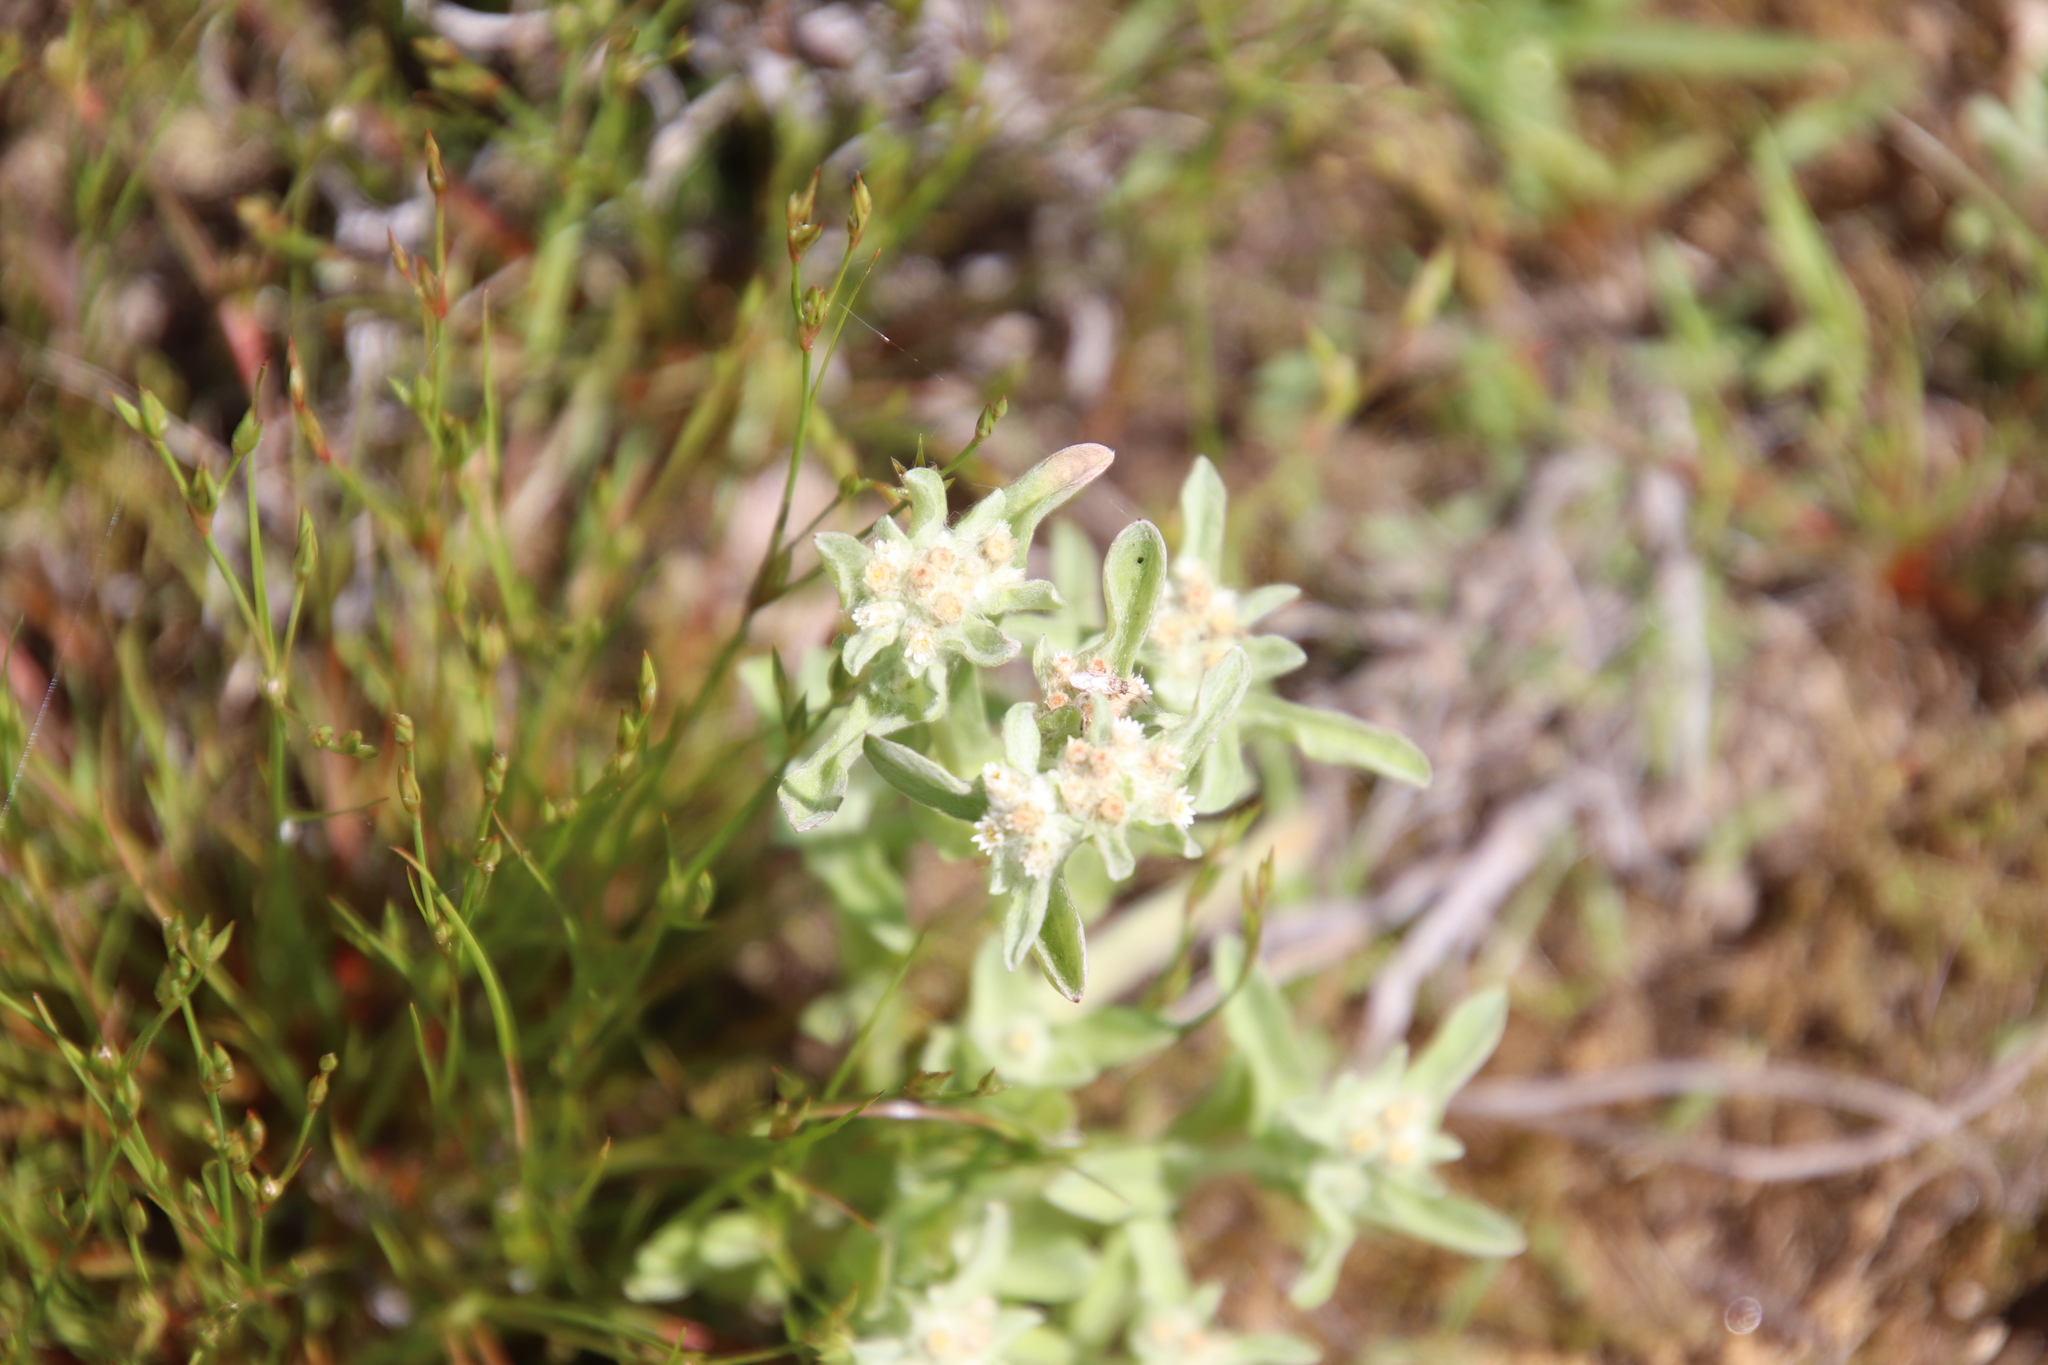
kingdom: Plantae
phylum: Tracheophyta
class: Magnoliopsida
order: Asterales
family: Asteraceae
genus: Gnaphalium
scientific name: Gnaphalium palustre
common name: Western marsh cudweed
